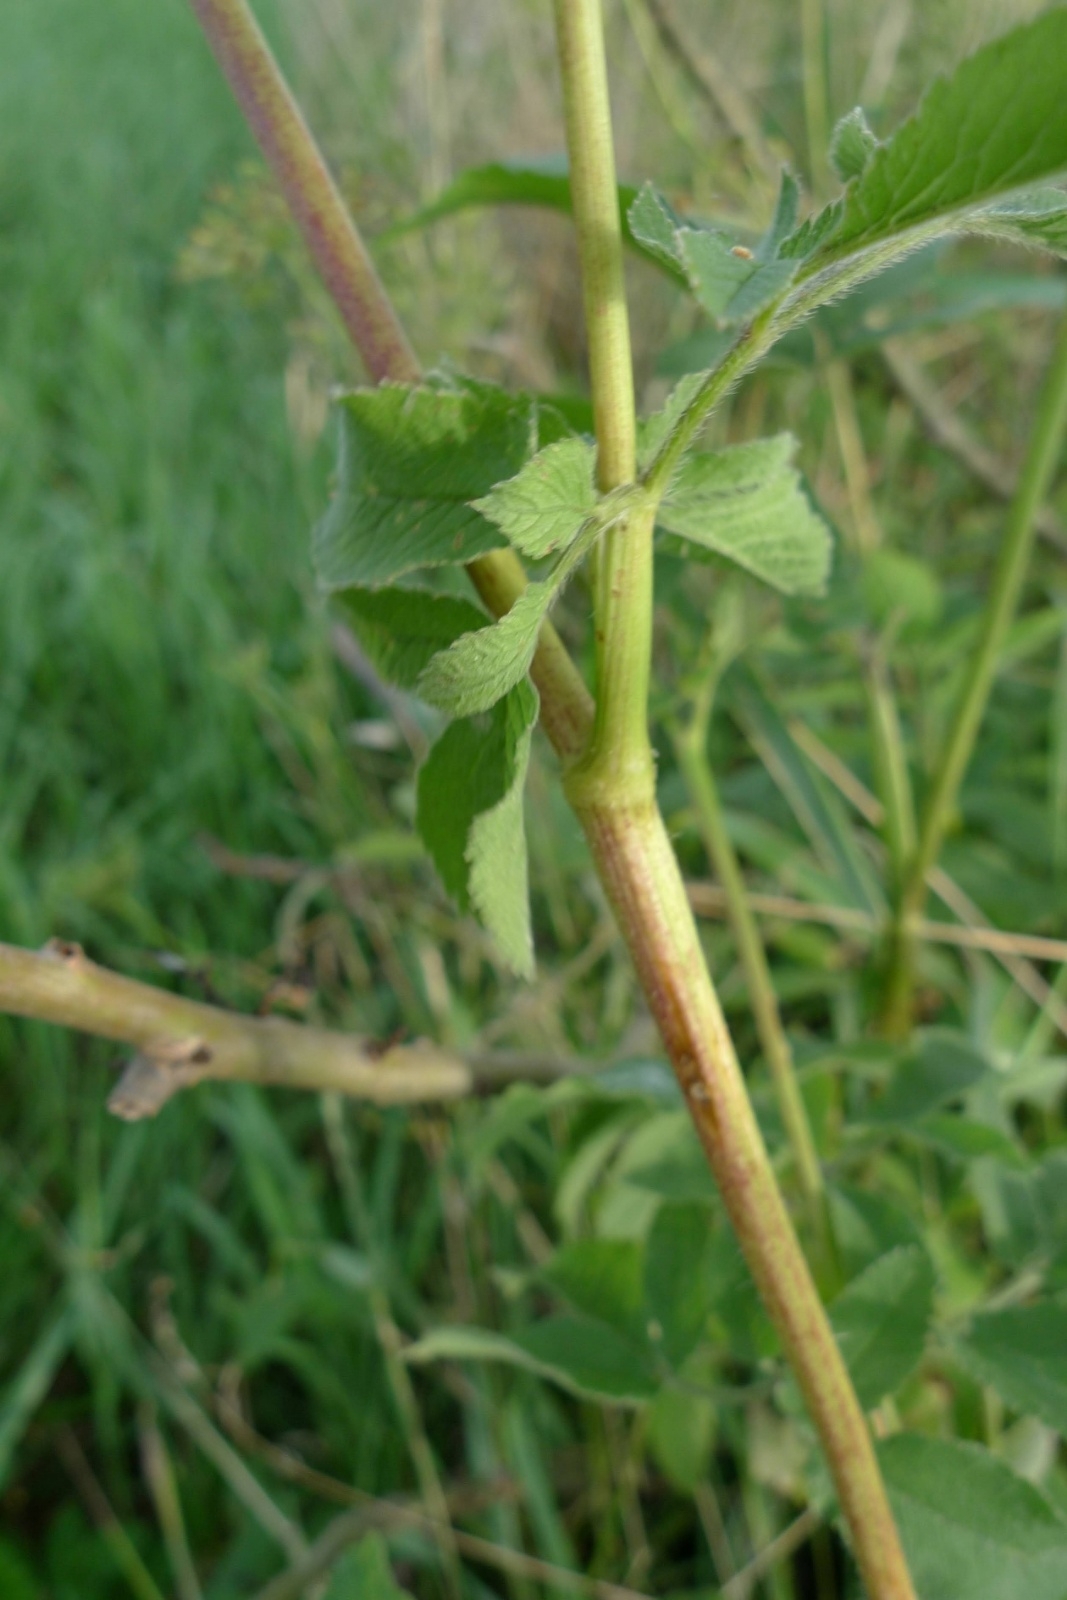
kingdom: Plantae
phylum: Tracheophyta
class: Magnoliopsida
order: Apiales
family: Apiaceae
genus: Chaerophyllum
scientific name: Chaerophyllum aromaticum
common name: Broadleaf chervil
